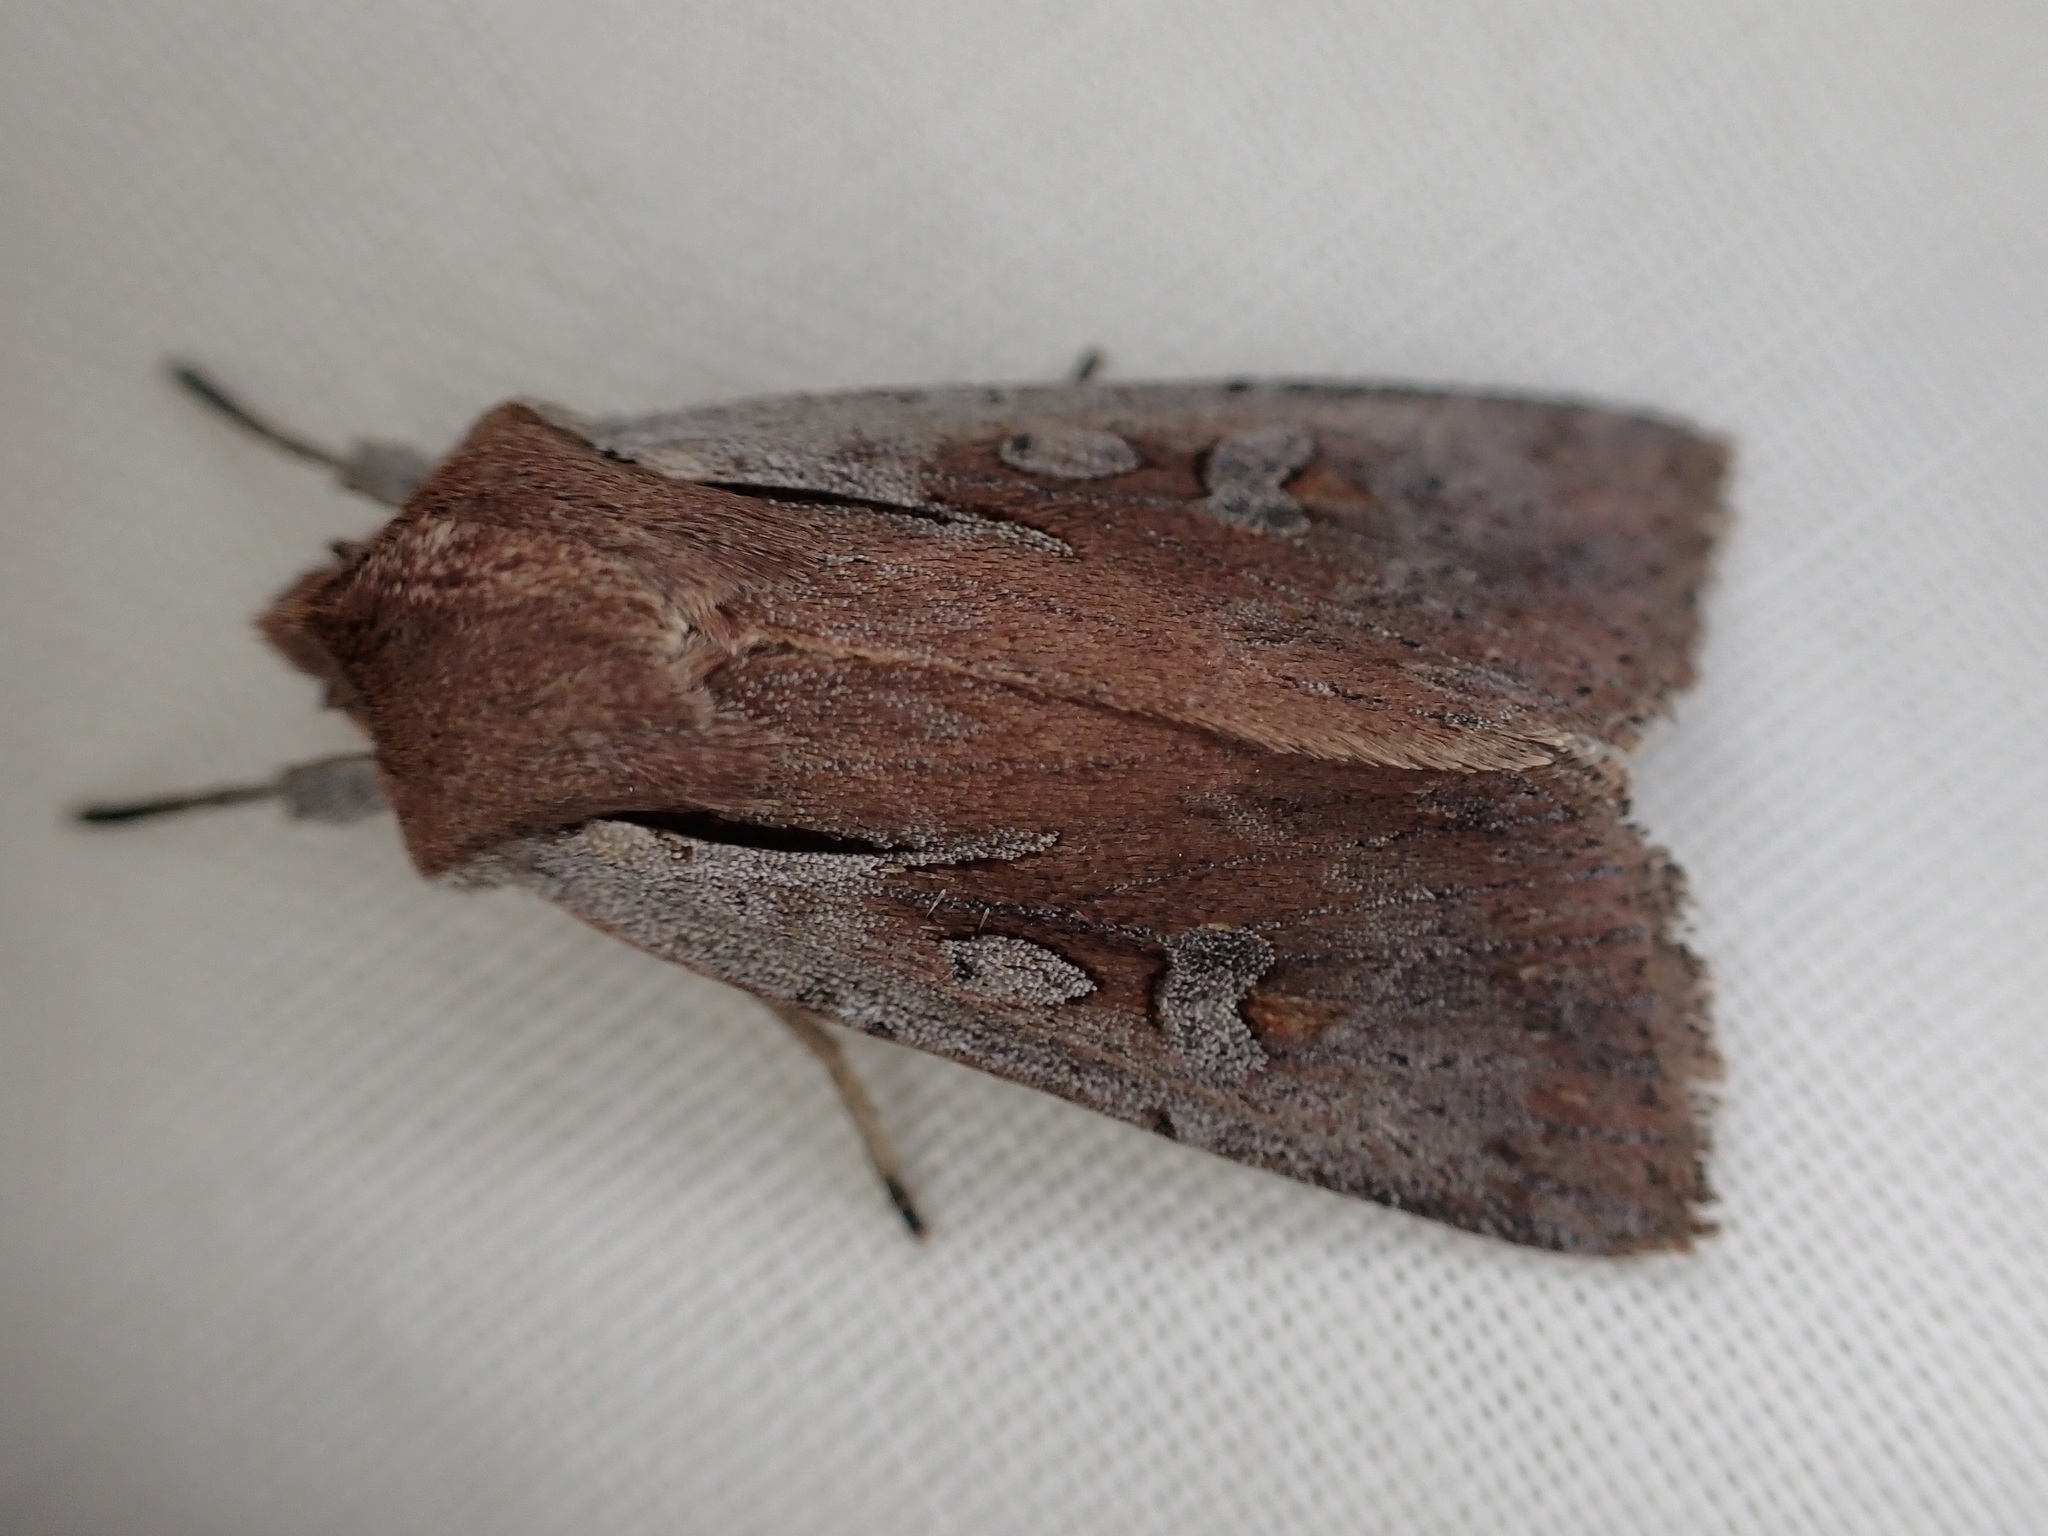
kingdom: Animalia
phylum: Arthropoda
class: Insecta
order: Lepidoptera
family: Noctuidae
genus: Ichneutica
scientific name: Ichneutica atristriga
